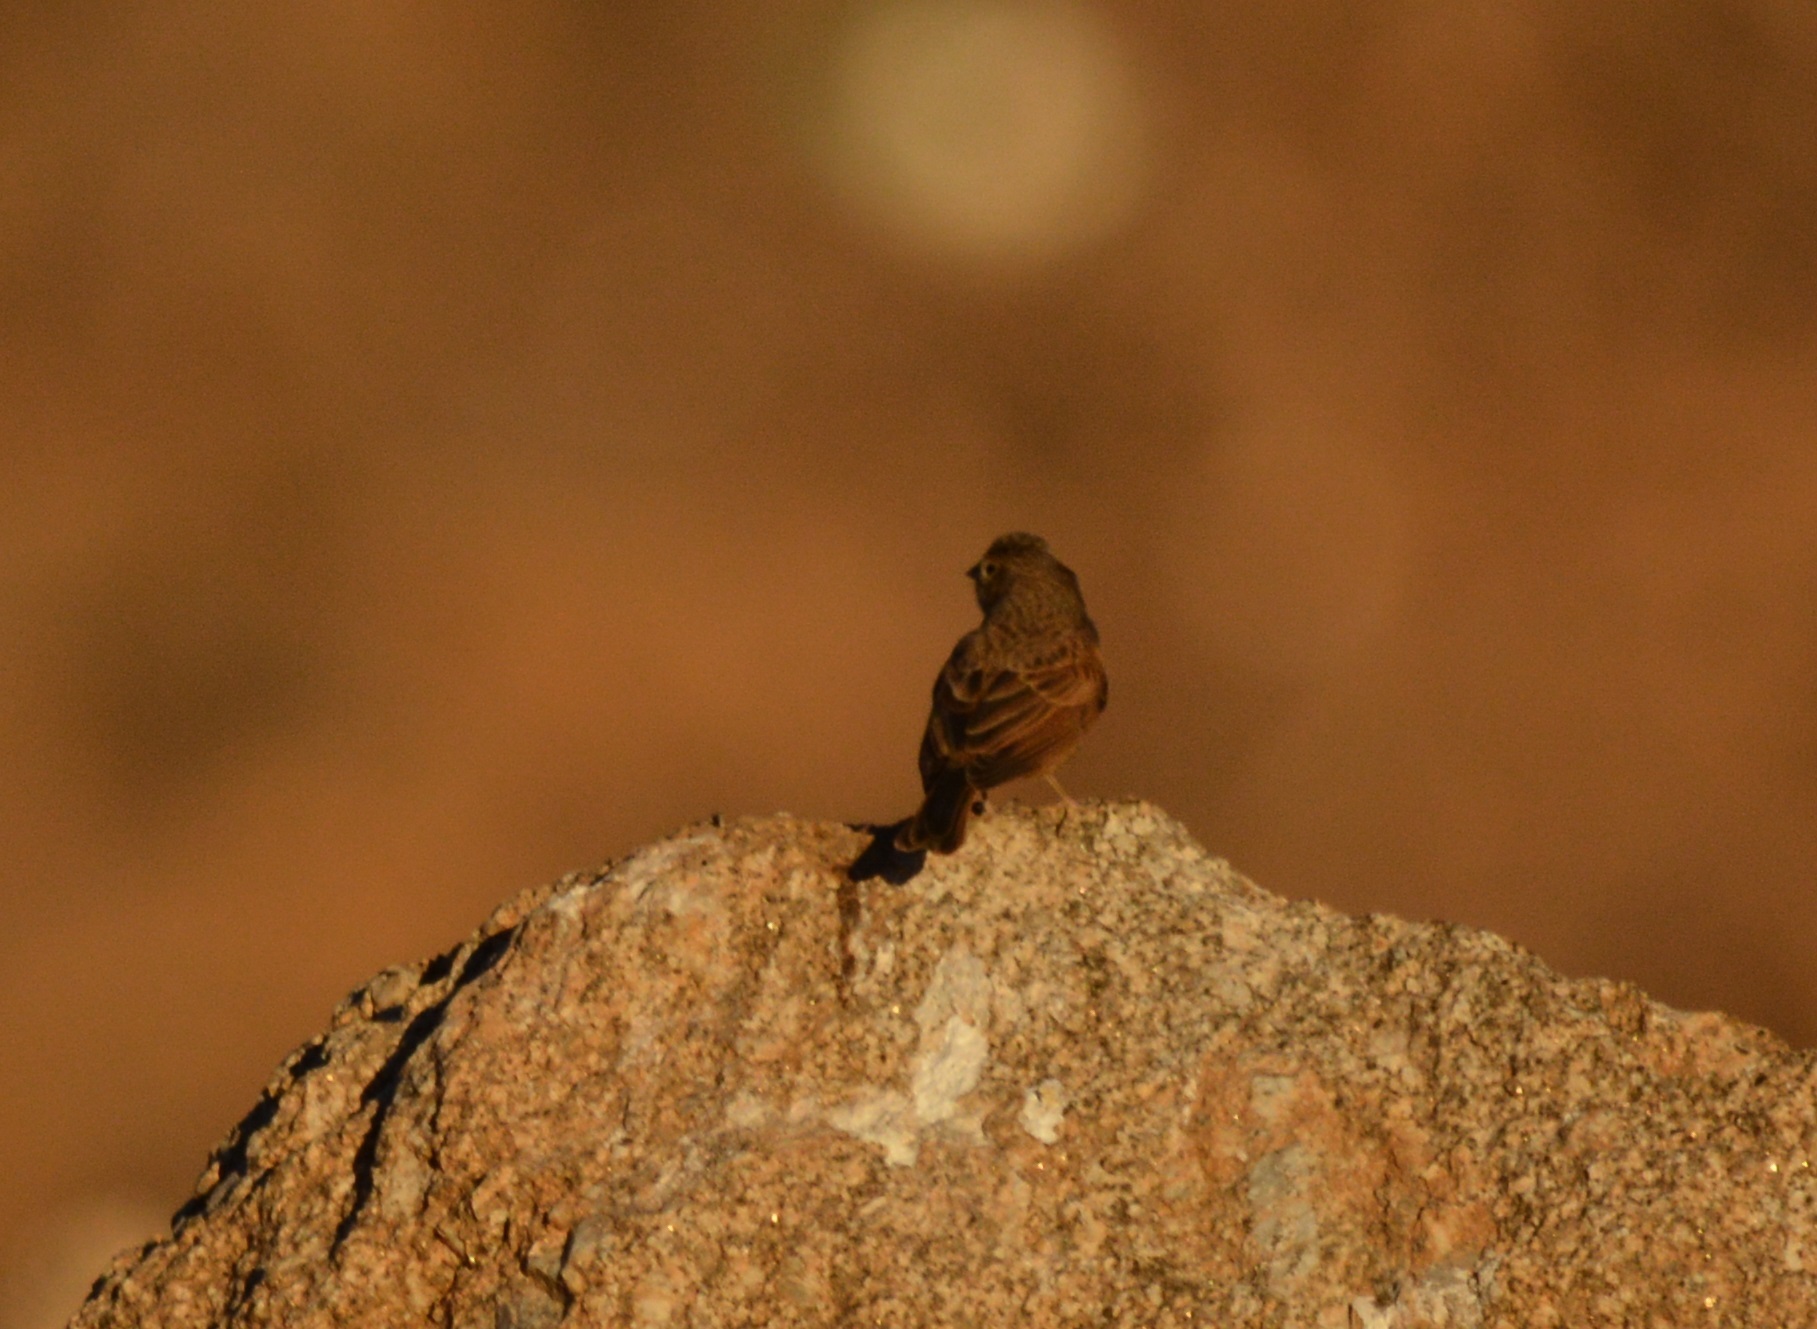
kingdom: Animalia
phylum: Chordata
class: Aves
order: Passeriformes
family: Emberizidae
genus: Emberiza
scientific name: Emberiza sahari
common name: House bunting
